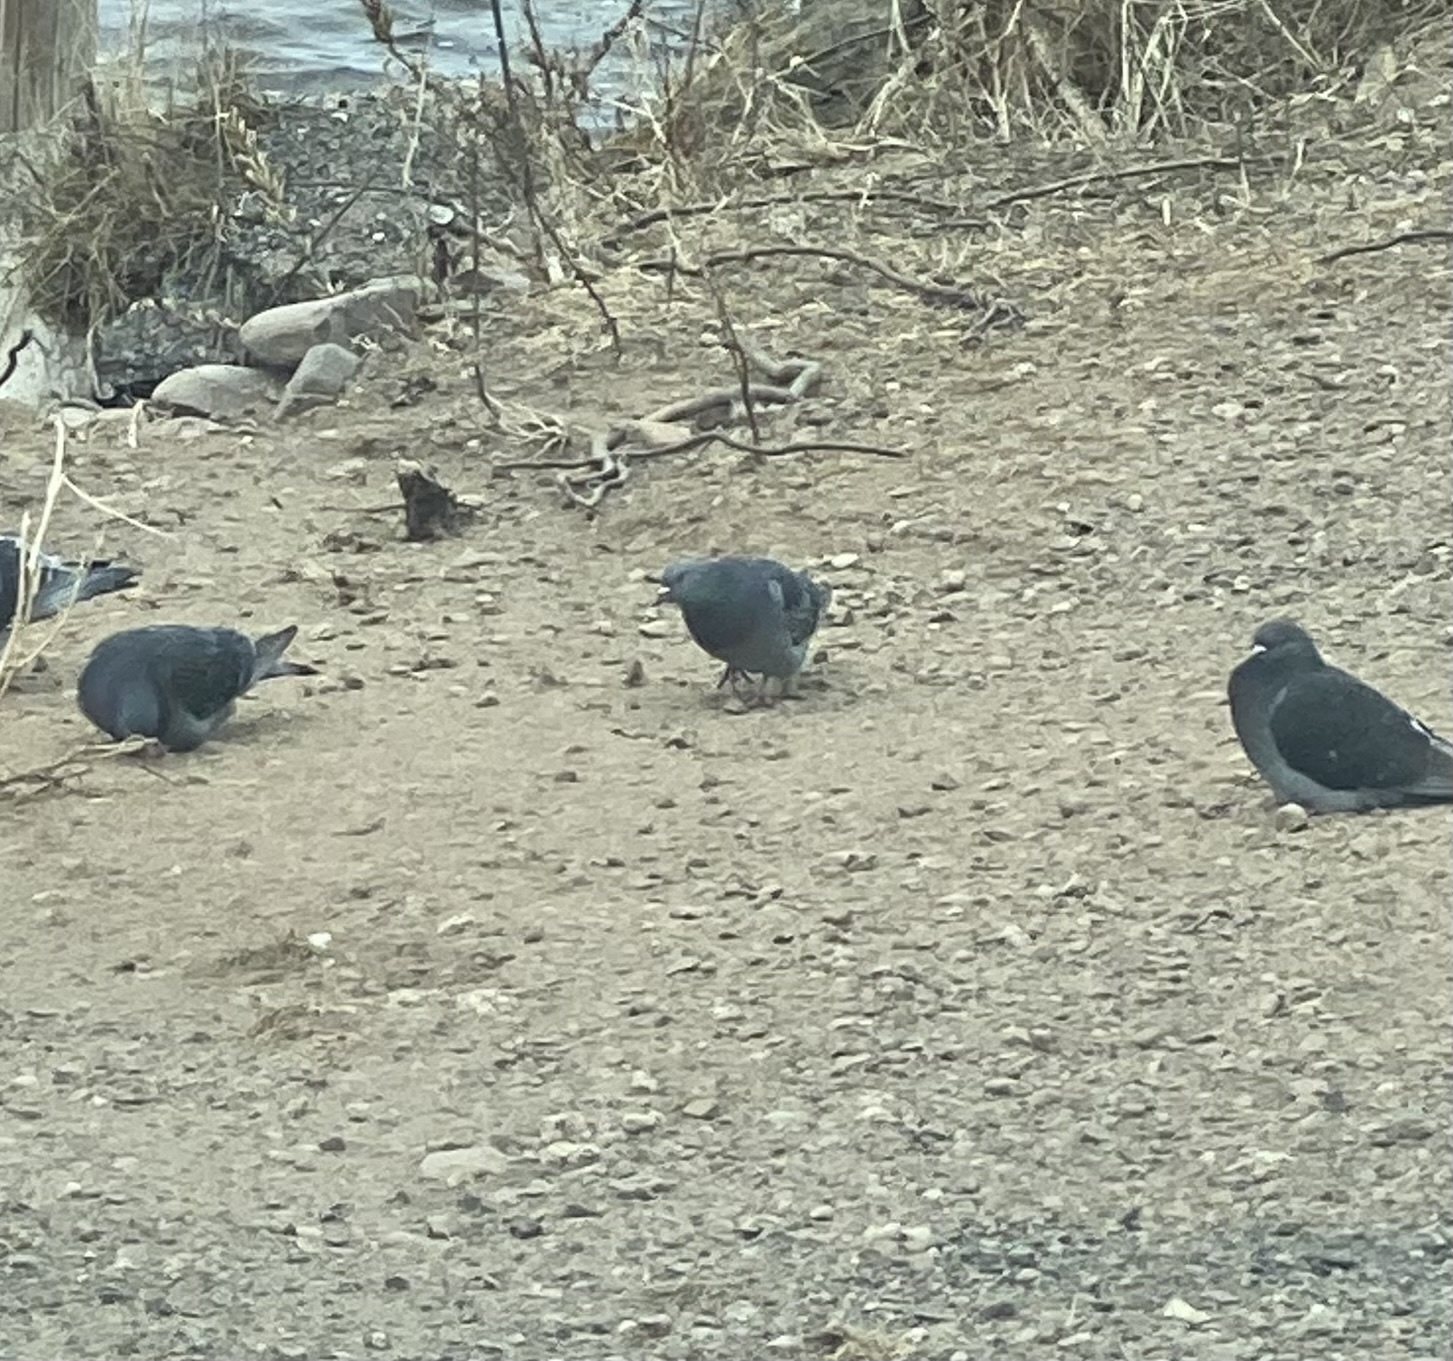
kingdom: Animalia
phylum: Chordata
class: Aves
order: Columbiformes
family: Columbidae
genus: Columba
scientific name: Columba livia
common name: Rock pigeon
